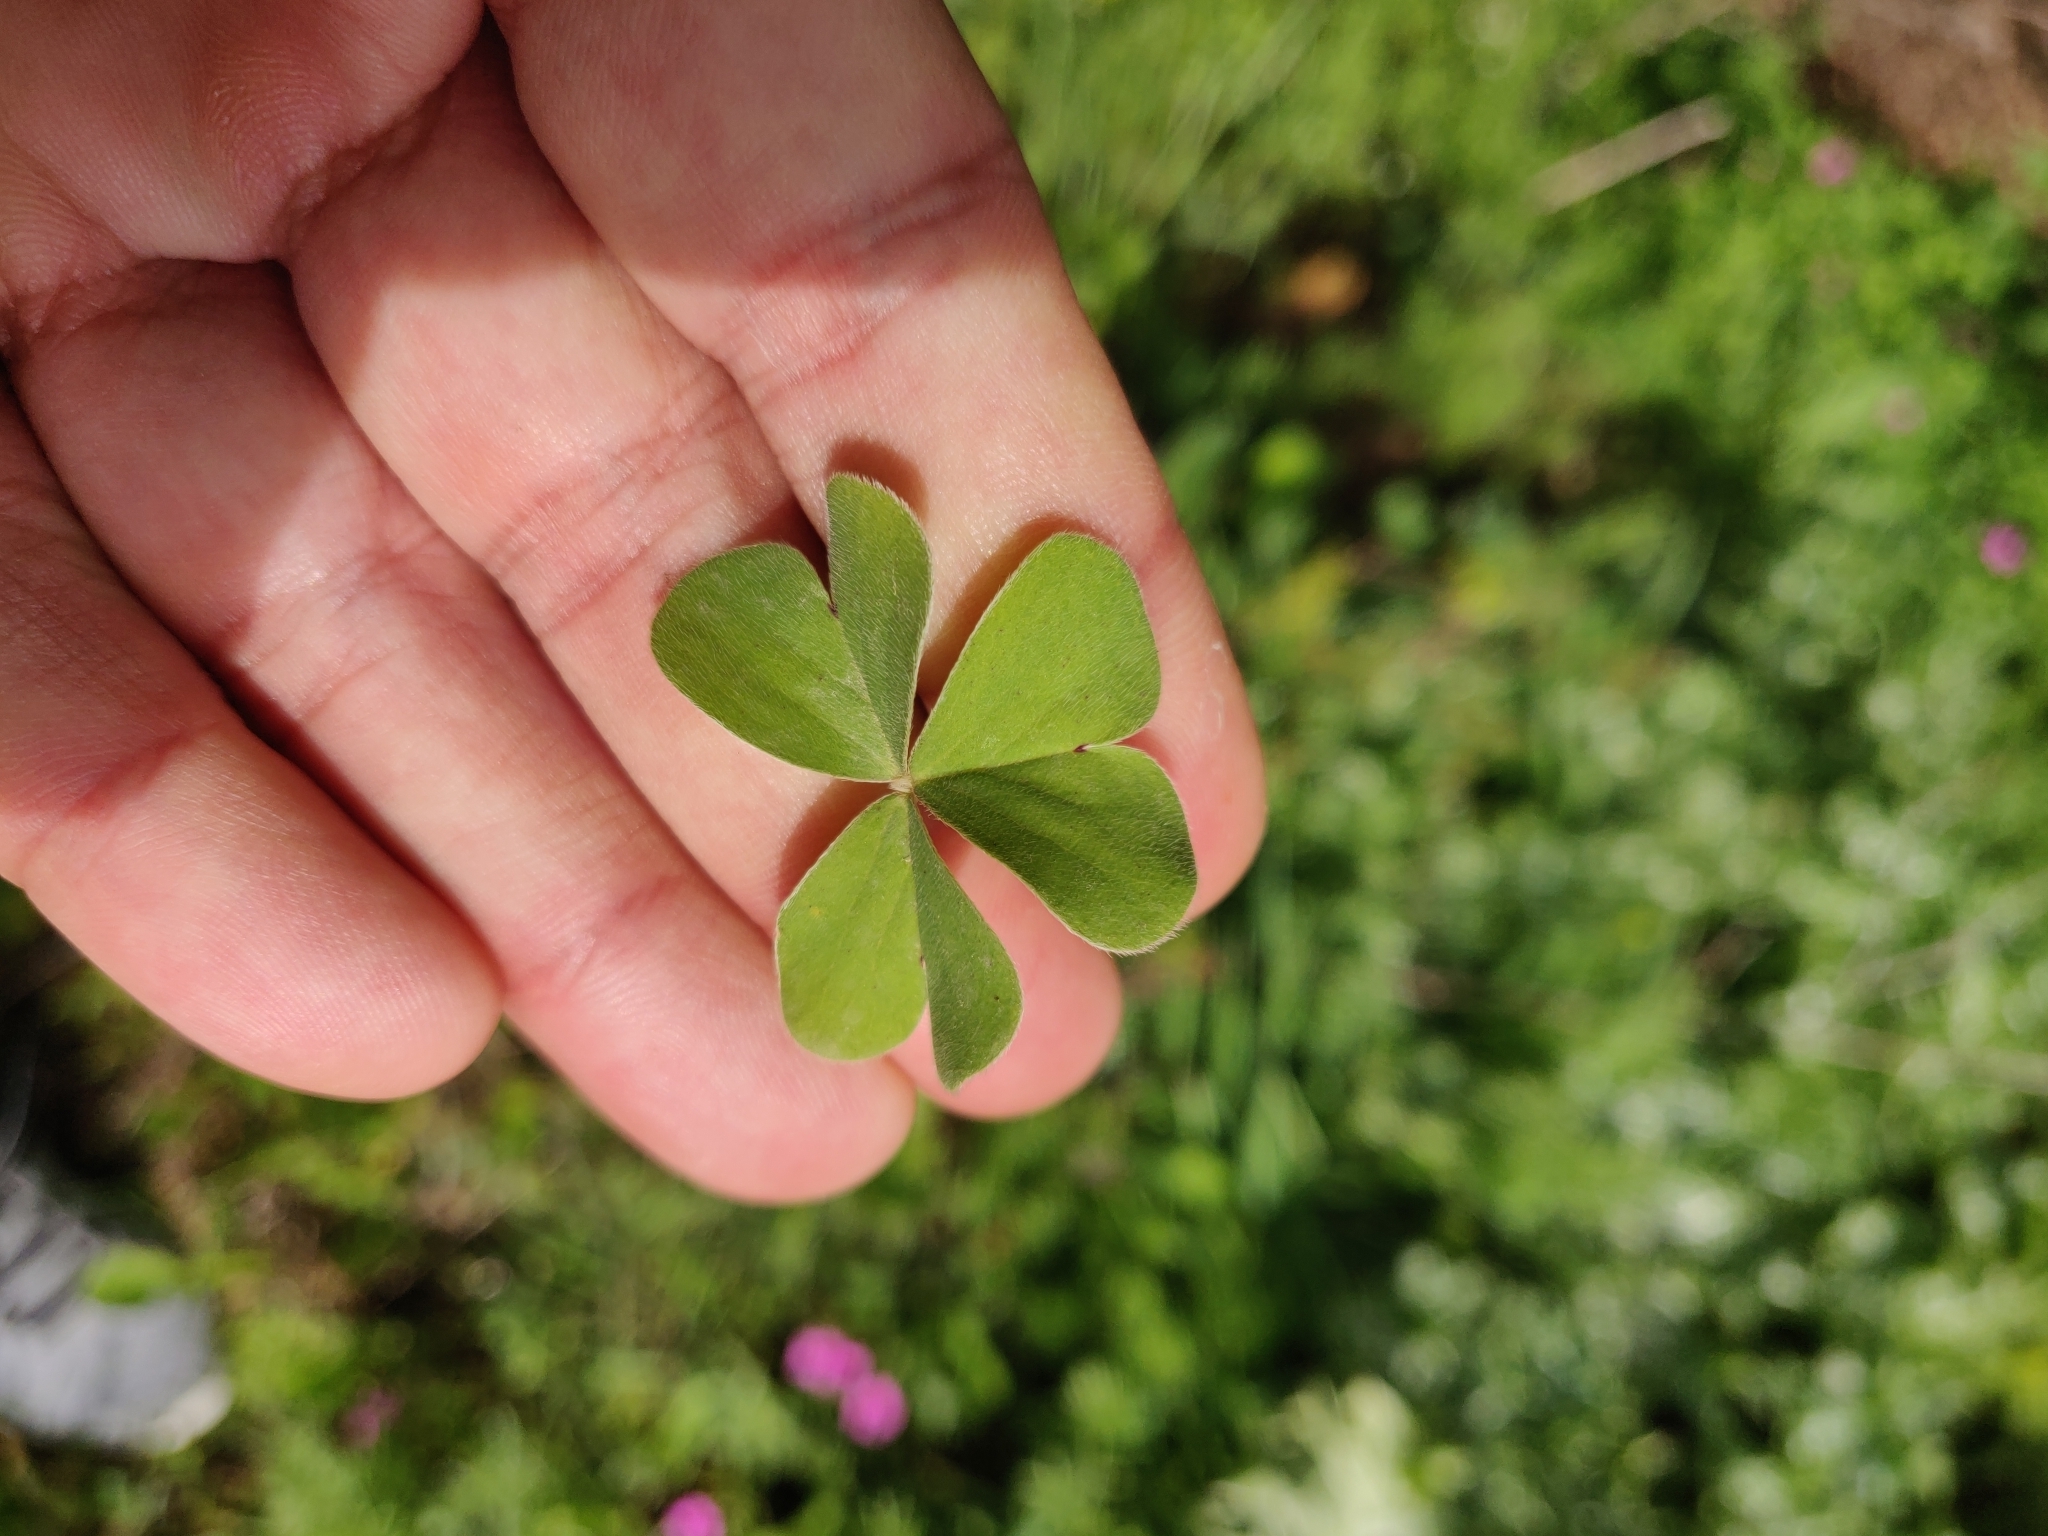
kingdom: Plantae
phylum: Tracheophyta
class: Magnoliopsida
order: Oxalidales
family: Oxalidaceae
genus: Oxalis
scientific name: Oxalis articulata
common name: Pink-sorrel
